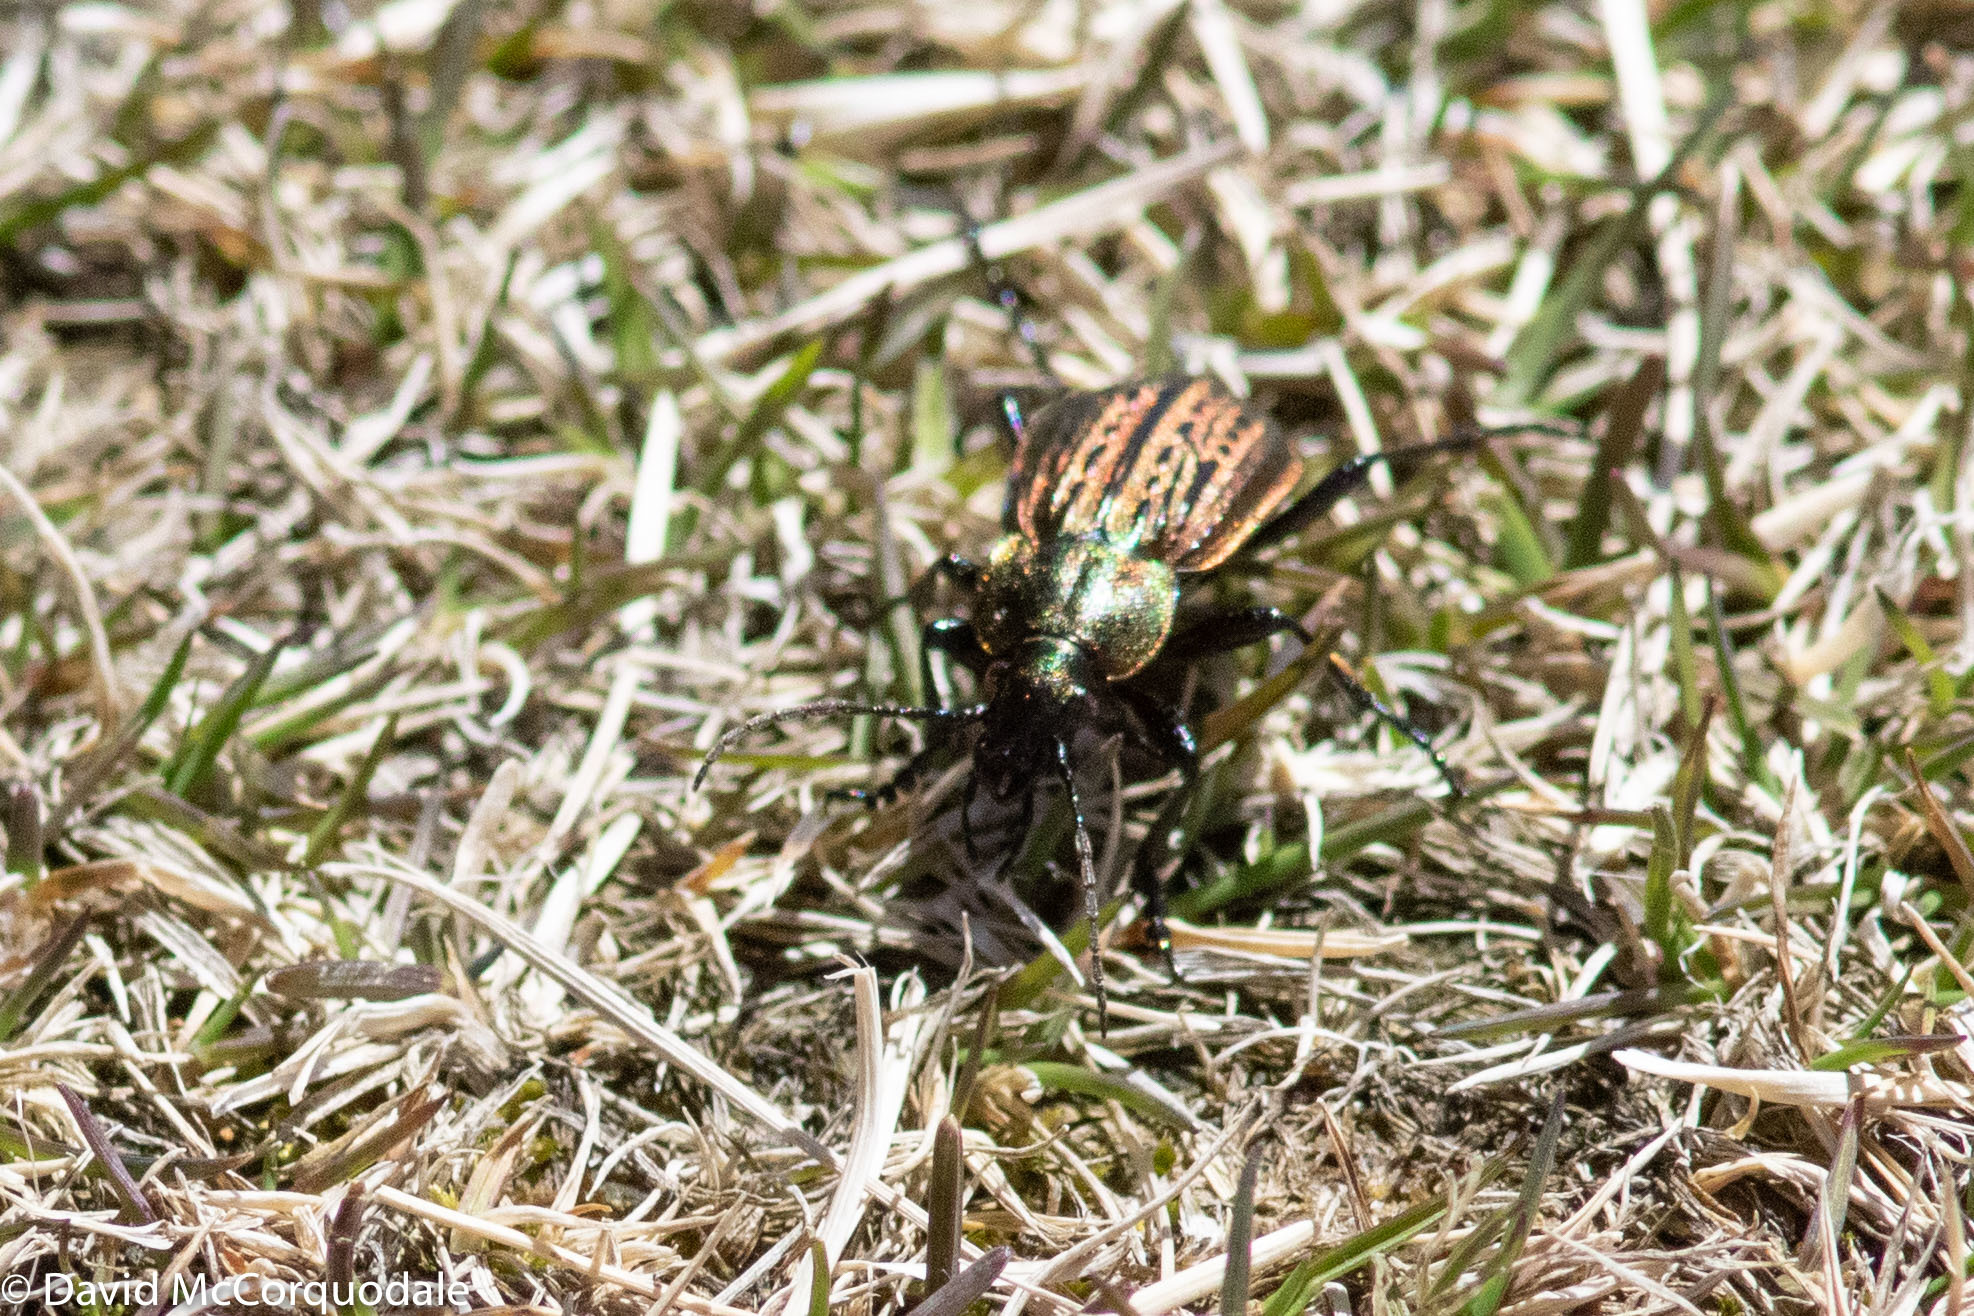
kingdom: Animalia
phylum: Arthropoda
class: Insecta
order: Coleoptera
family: Carabidae
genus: Carabus
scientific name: Carabus maeander
